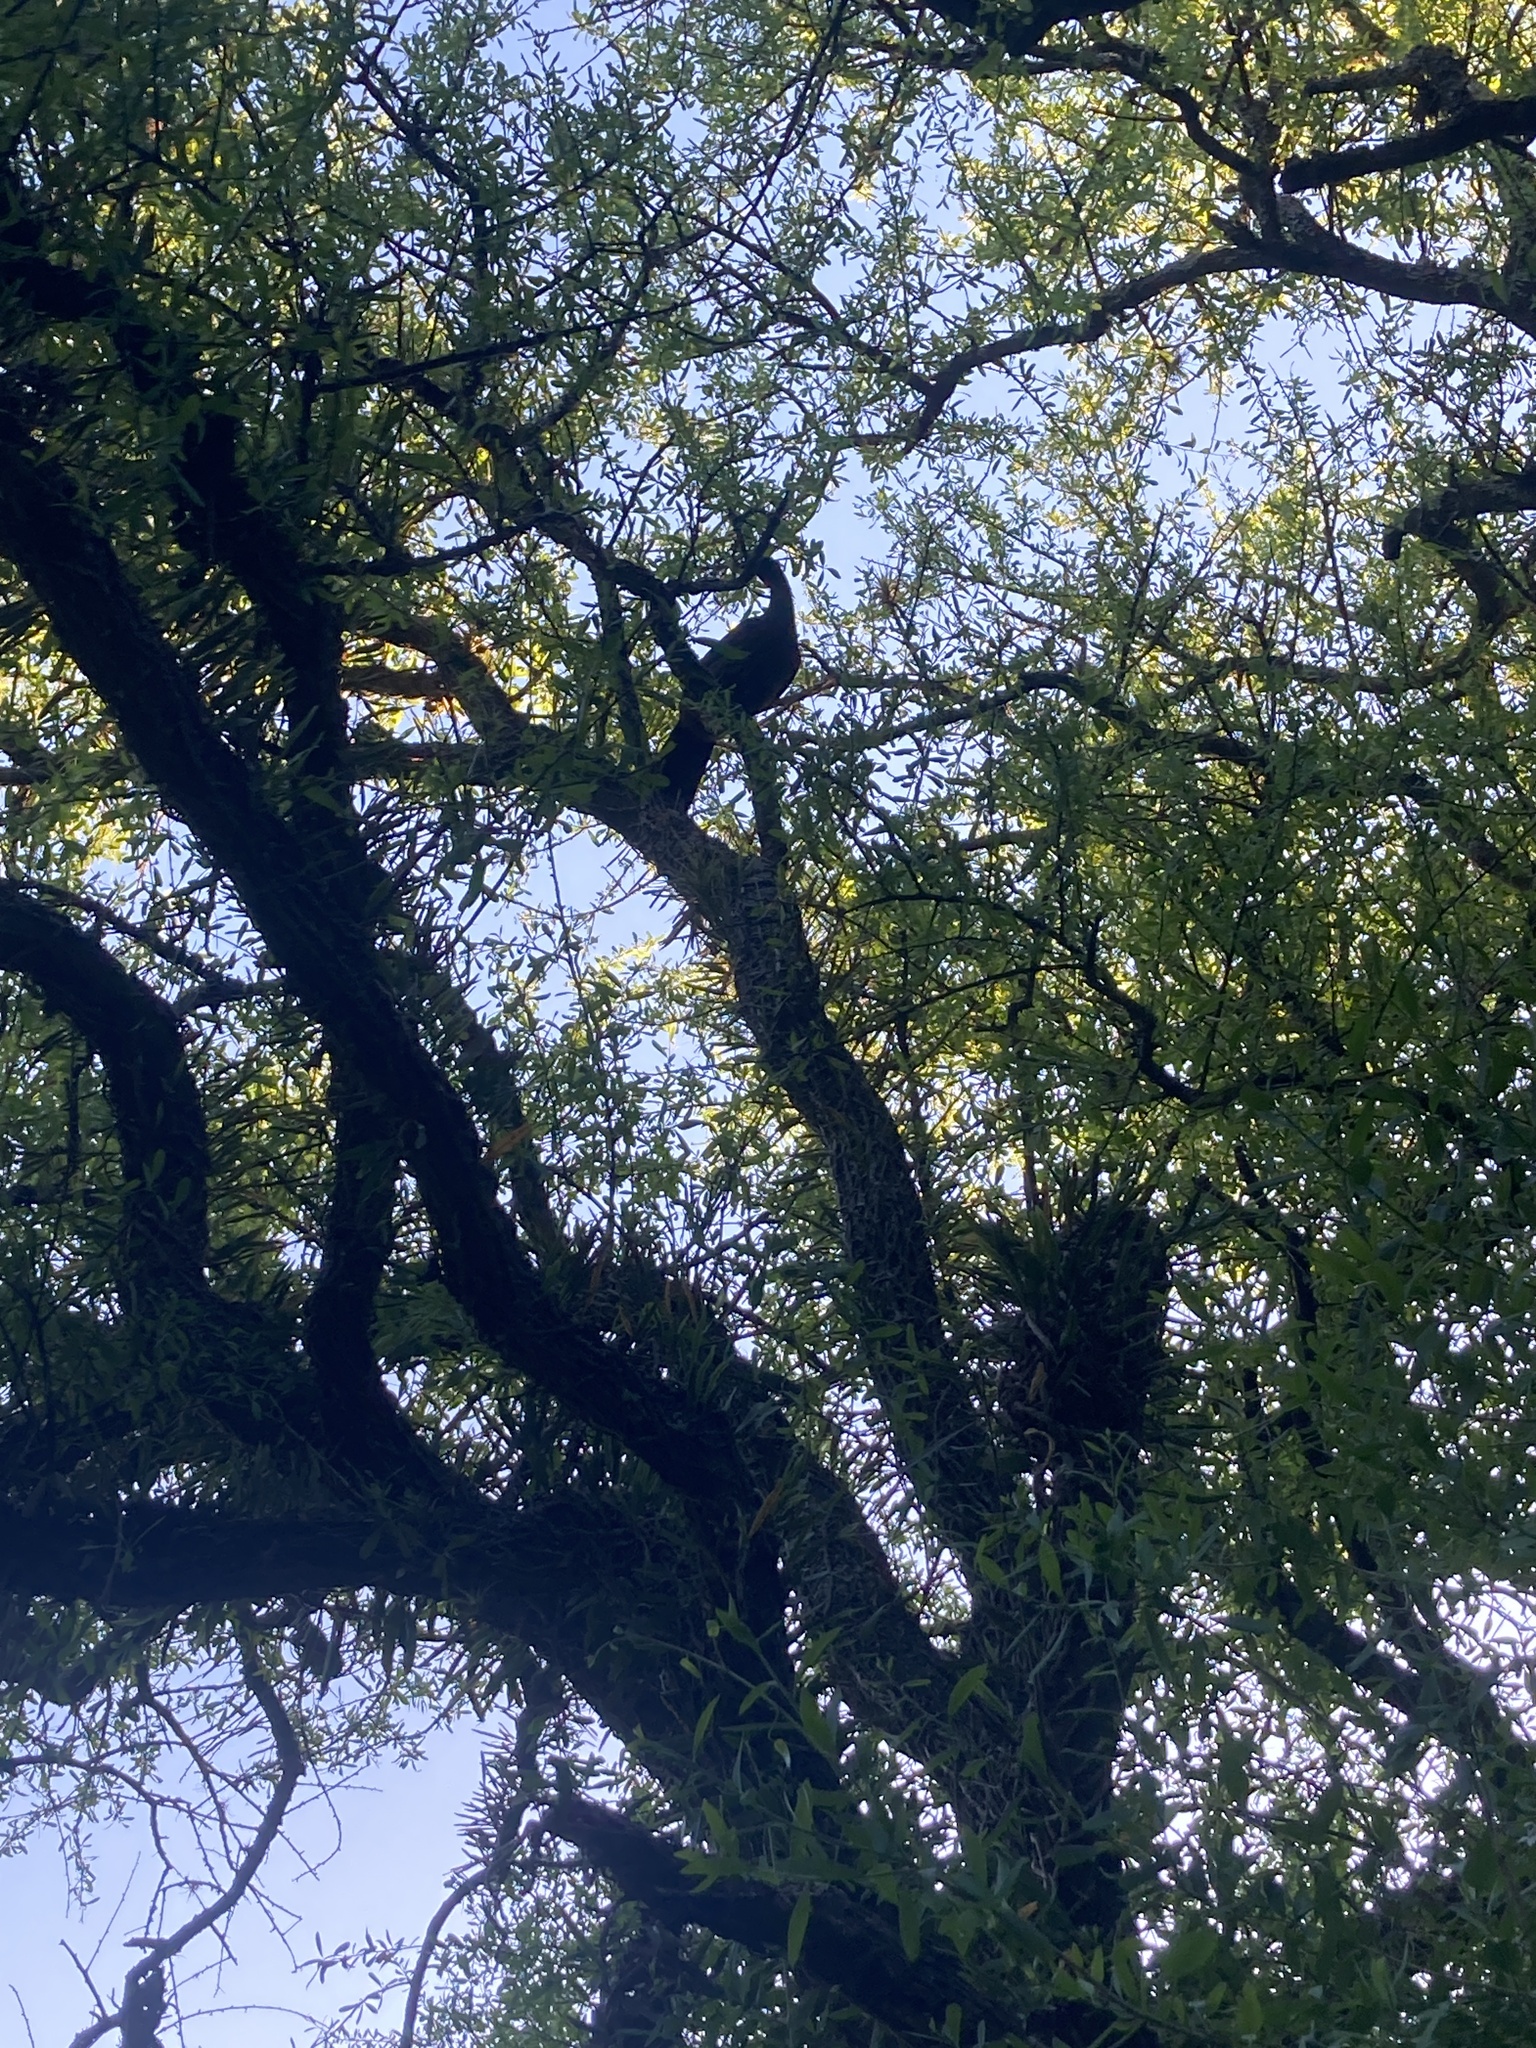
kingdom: Animalia
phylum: Chordata
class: Aves
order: Galliformes
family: Cracidae
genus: Penelope
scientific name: Penelope obscura
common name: Dusky-legged guan
